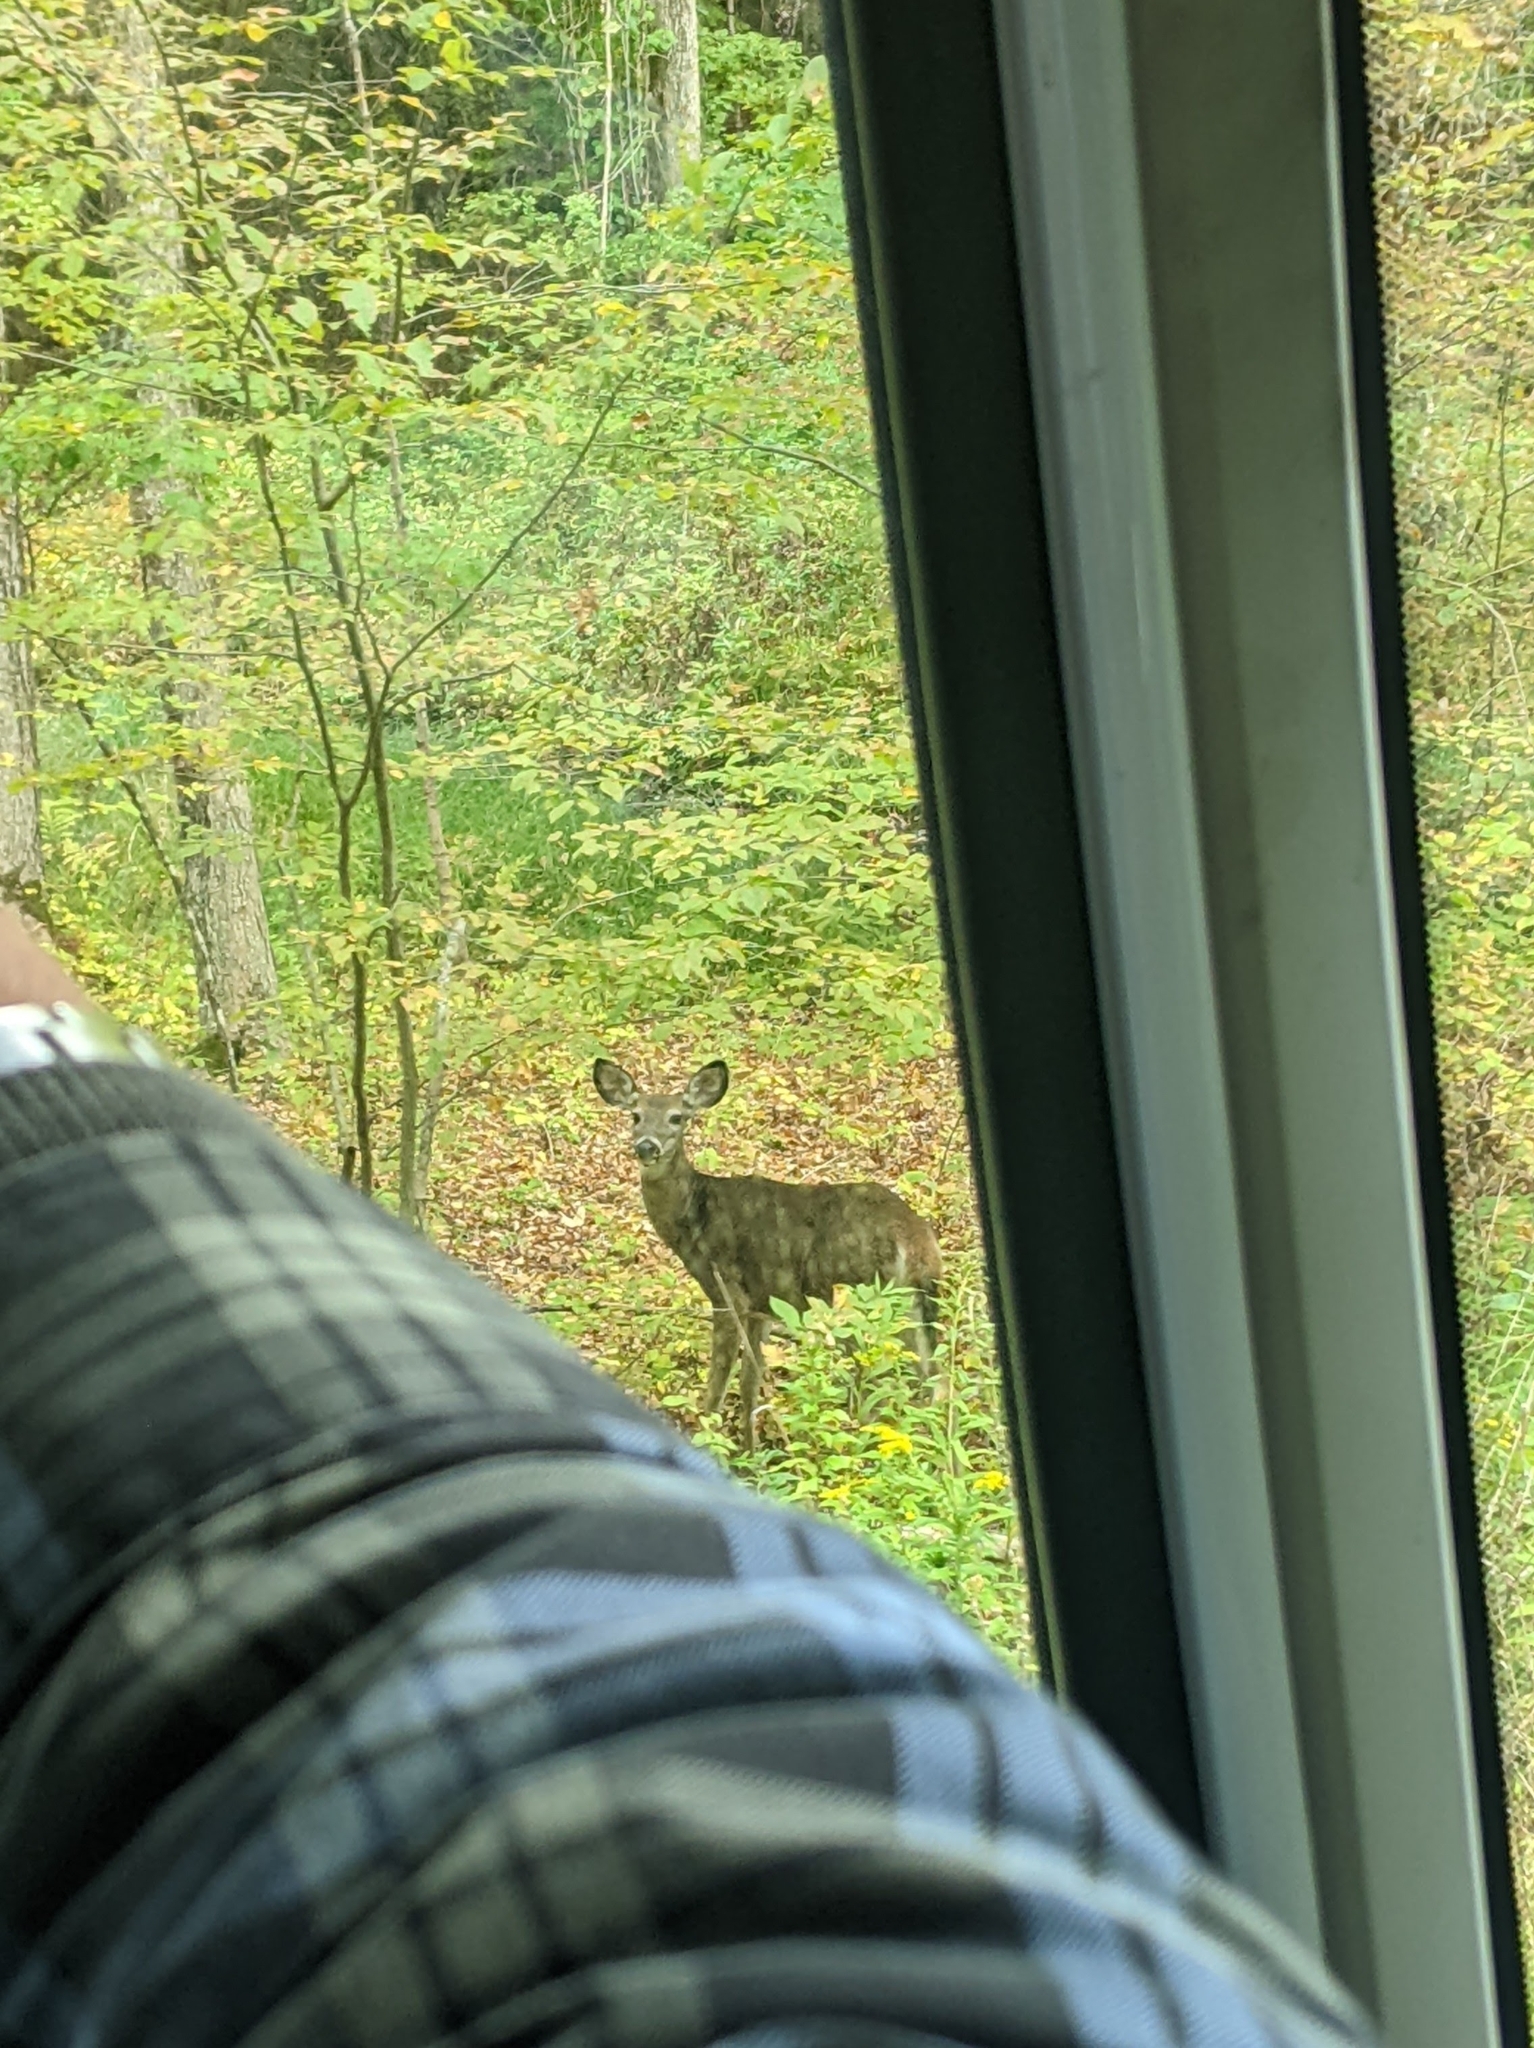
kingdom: Animalia
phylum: Chordata
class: Mammalia
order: Artiodactyla
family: Cervidae
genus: Odocoileus
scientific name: Odocoileus virginianus
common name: White-tailed deer
